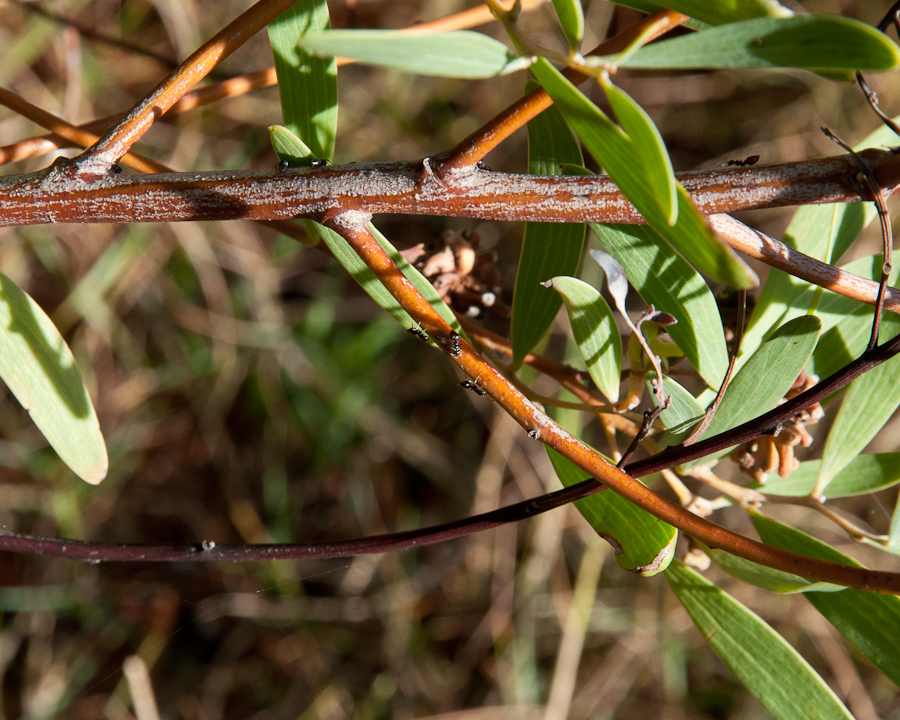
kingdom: Plantae
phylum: Tracheophyta
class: Magnoliopsida
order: Fabales
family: Fabaceae
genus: Acacia
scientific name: Acacia cyclops
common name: Coastal wattle
